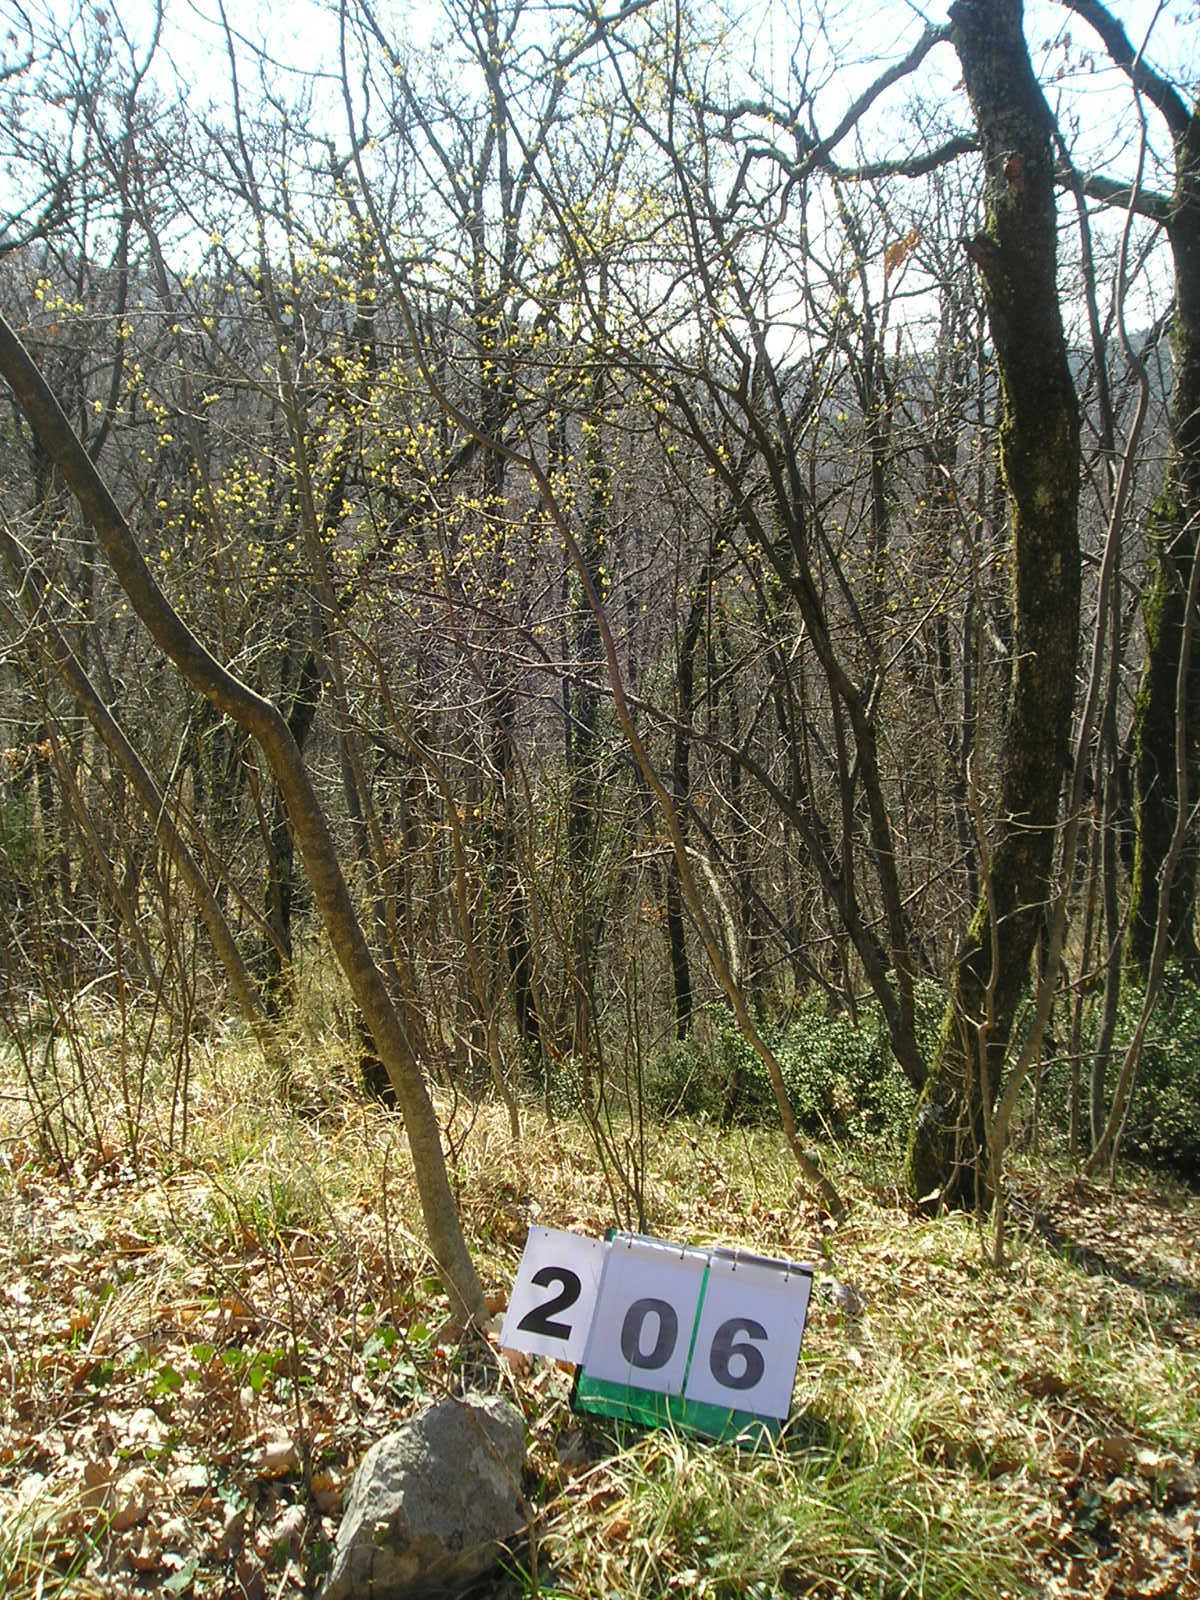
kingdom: Plantae
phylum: Tracheophyta
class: Magnoliopsida
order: Cornales
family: Cornaceae
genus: Cornus
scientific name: Cornus mas
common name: Cornelian-cherry
